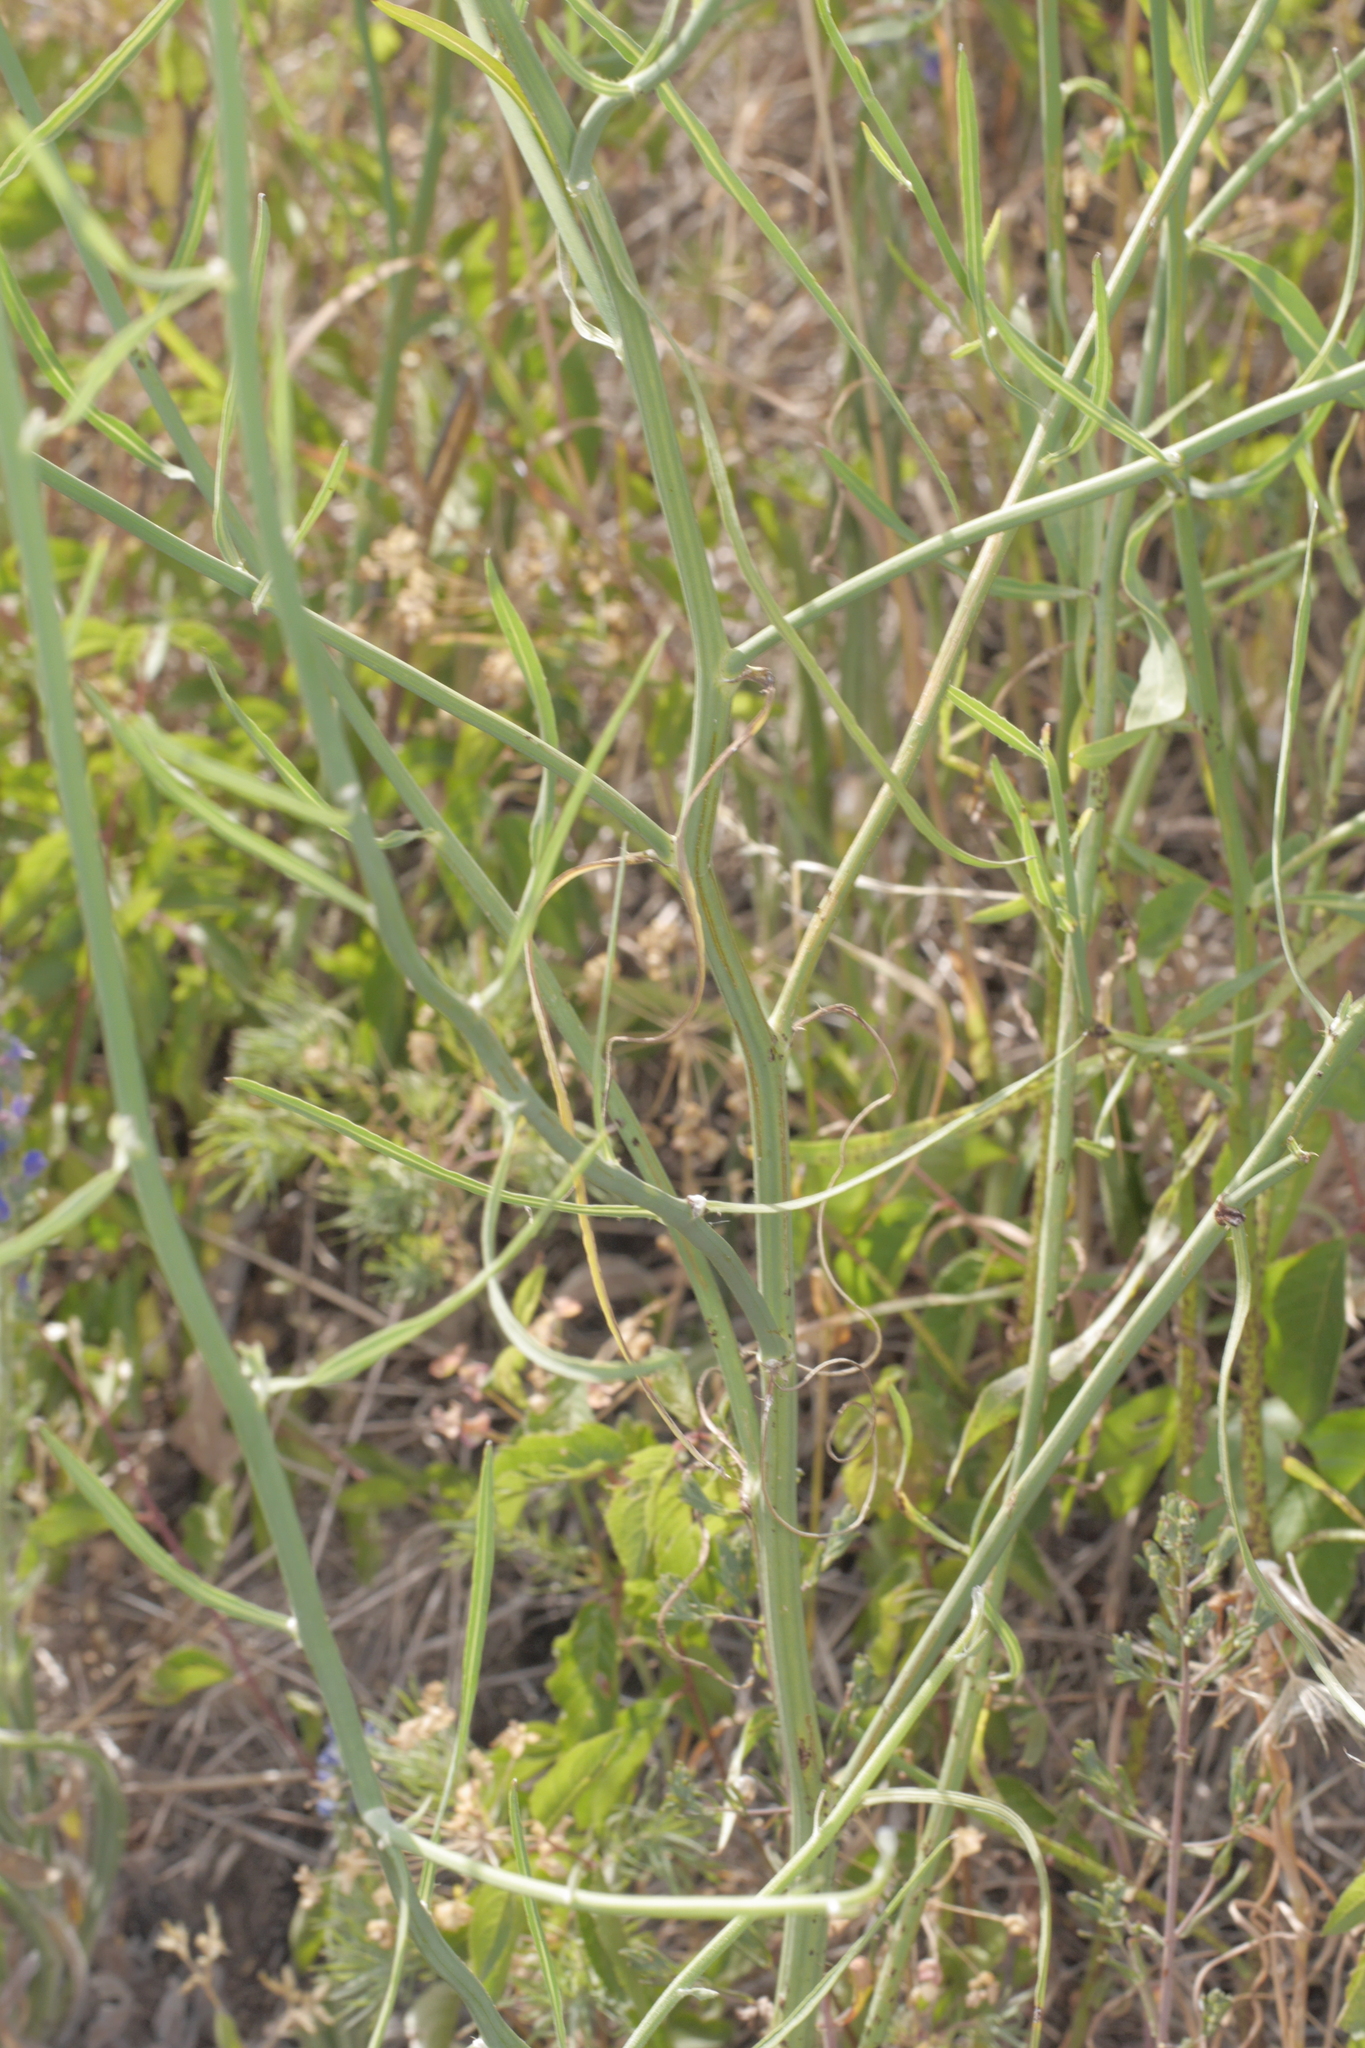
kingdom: Plantae
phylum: Tracheophyta
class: Magnoliopsida
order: Asterales
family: Asteraceae
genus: Chondrilla
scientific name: Chondrilla juncea
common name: Skeleton weed
